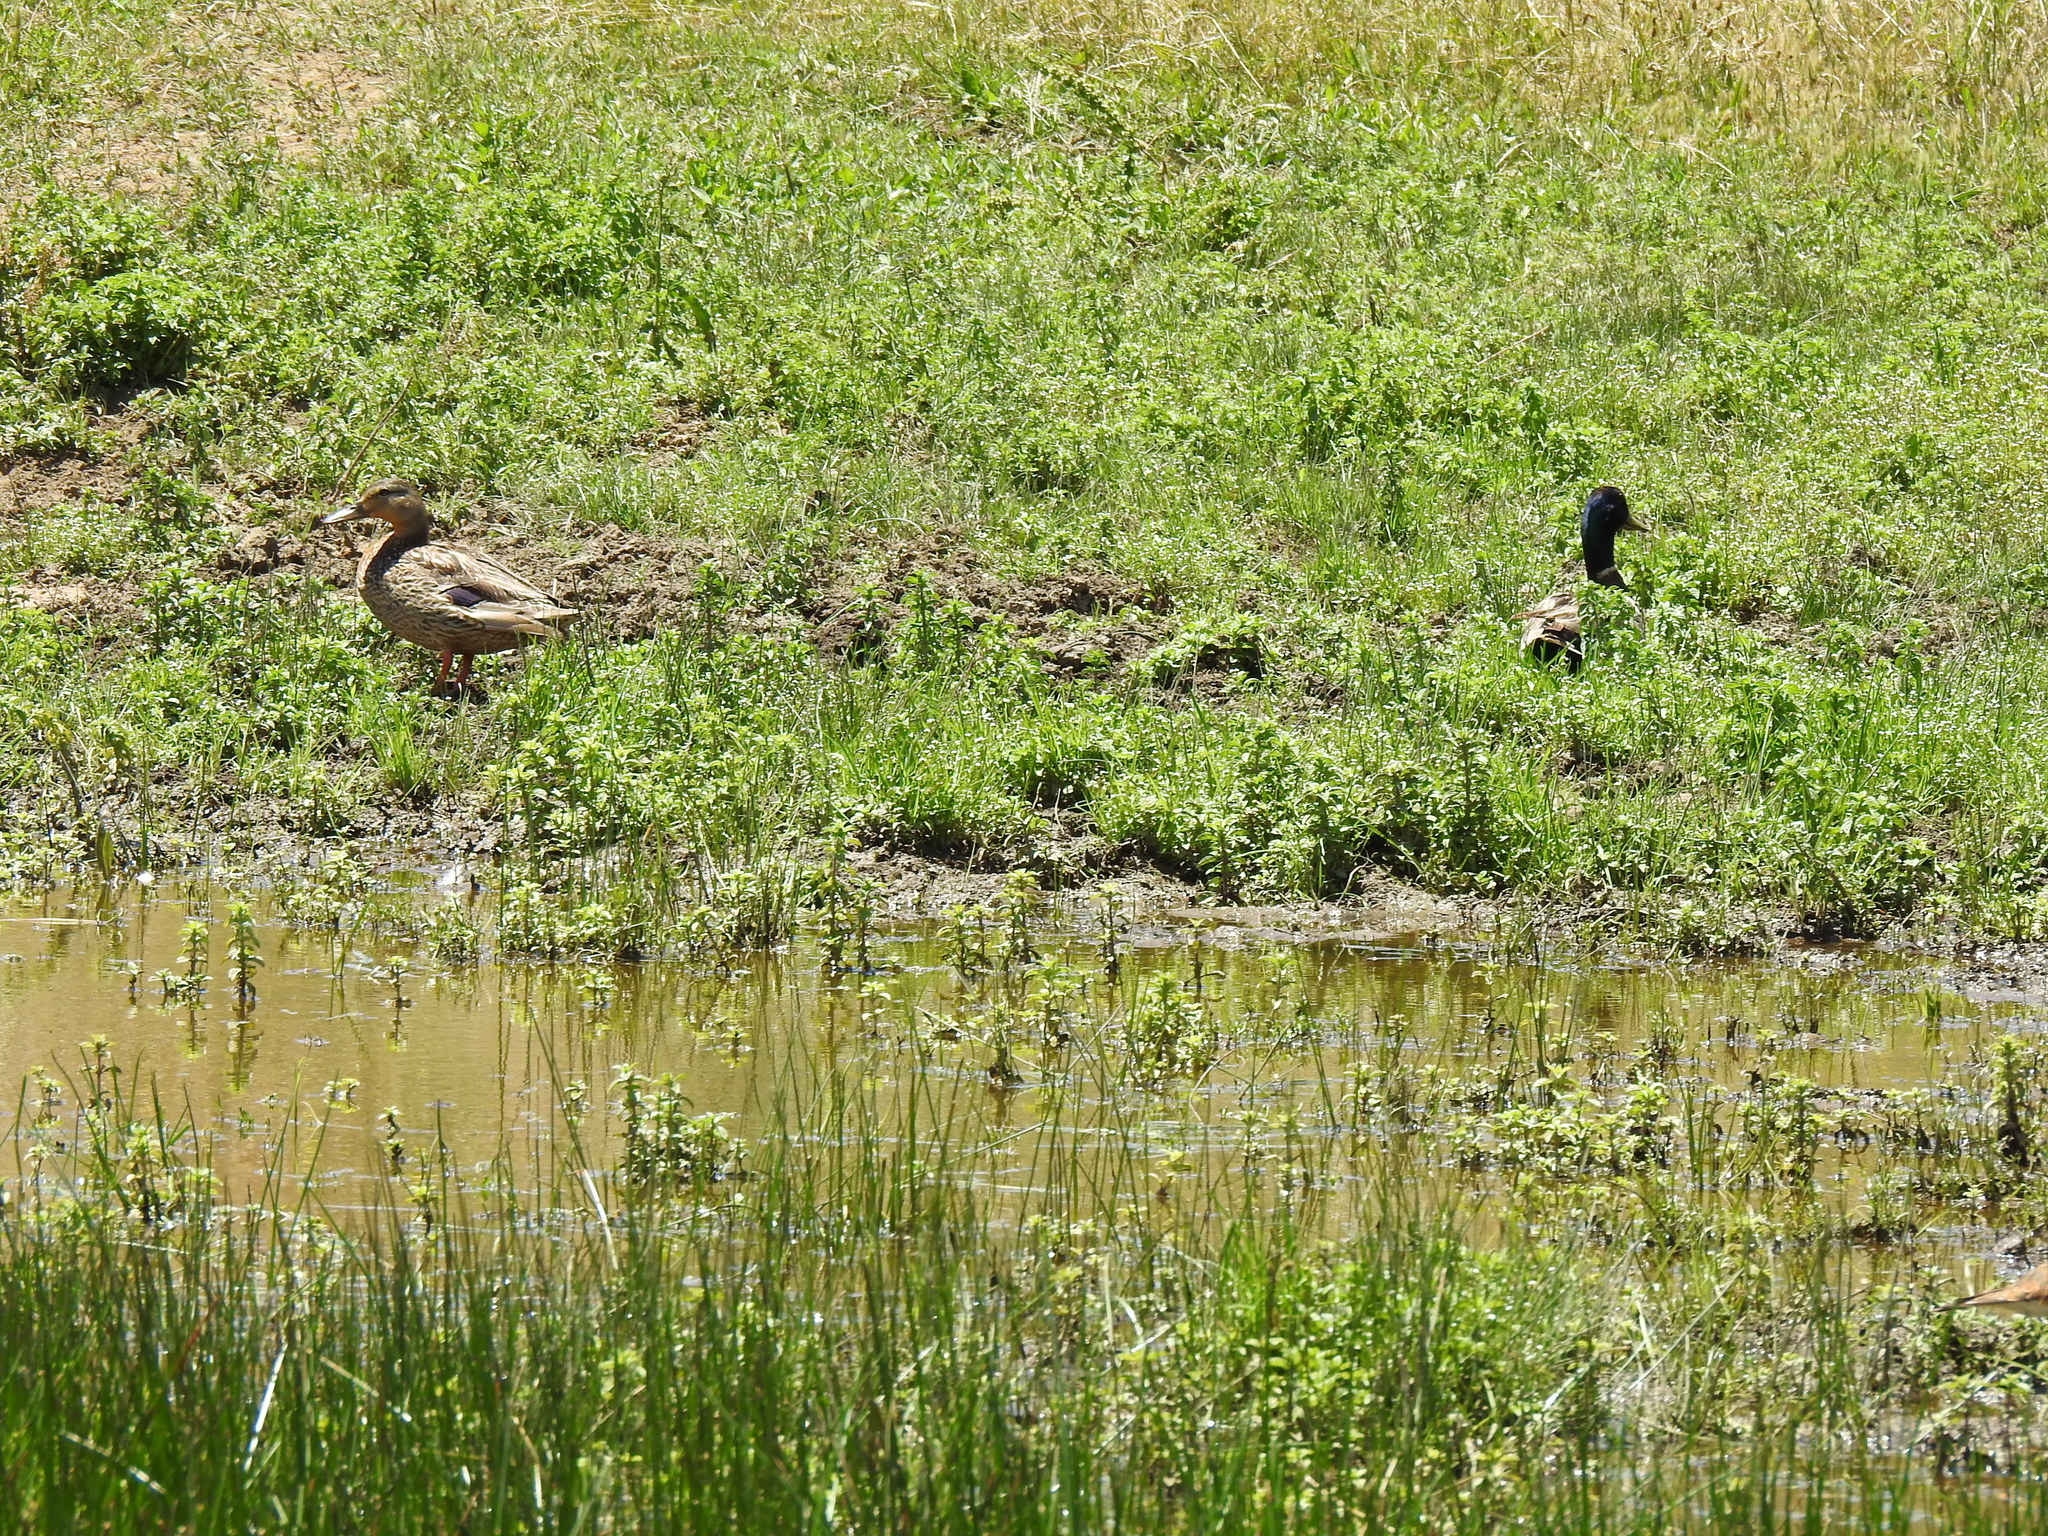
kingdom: Animalia
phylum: Chordata
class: Aves
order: Anseriformes
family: Anatidae
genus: Anas
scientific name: Anas platyrhynchos
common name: Mallard
